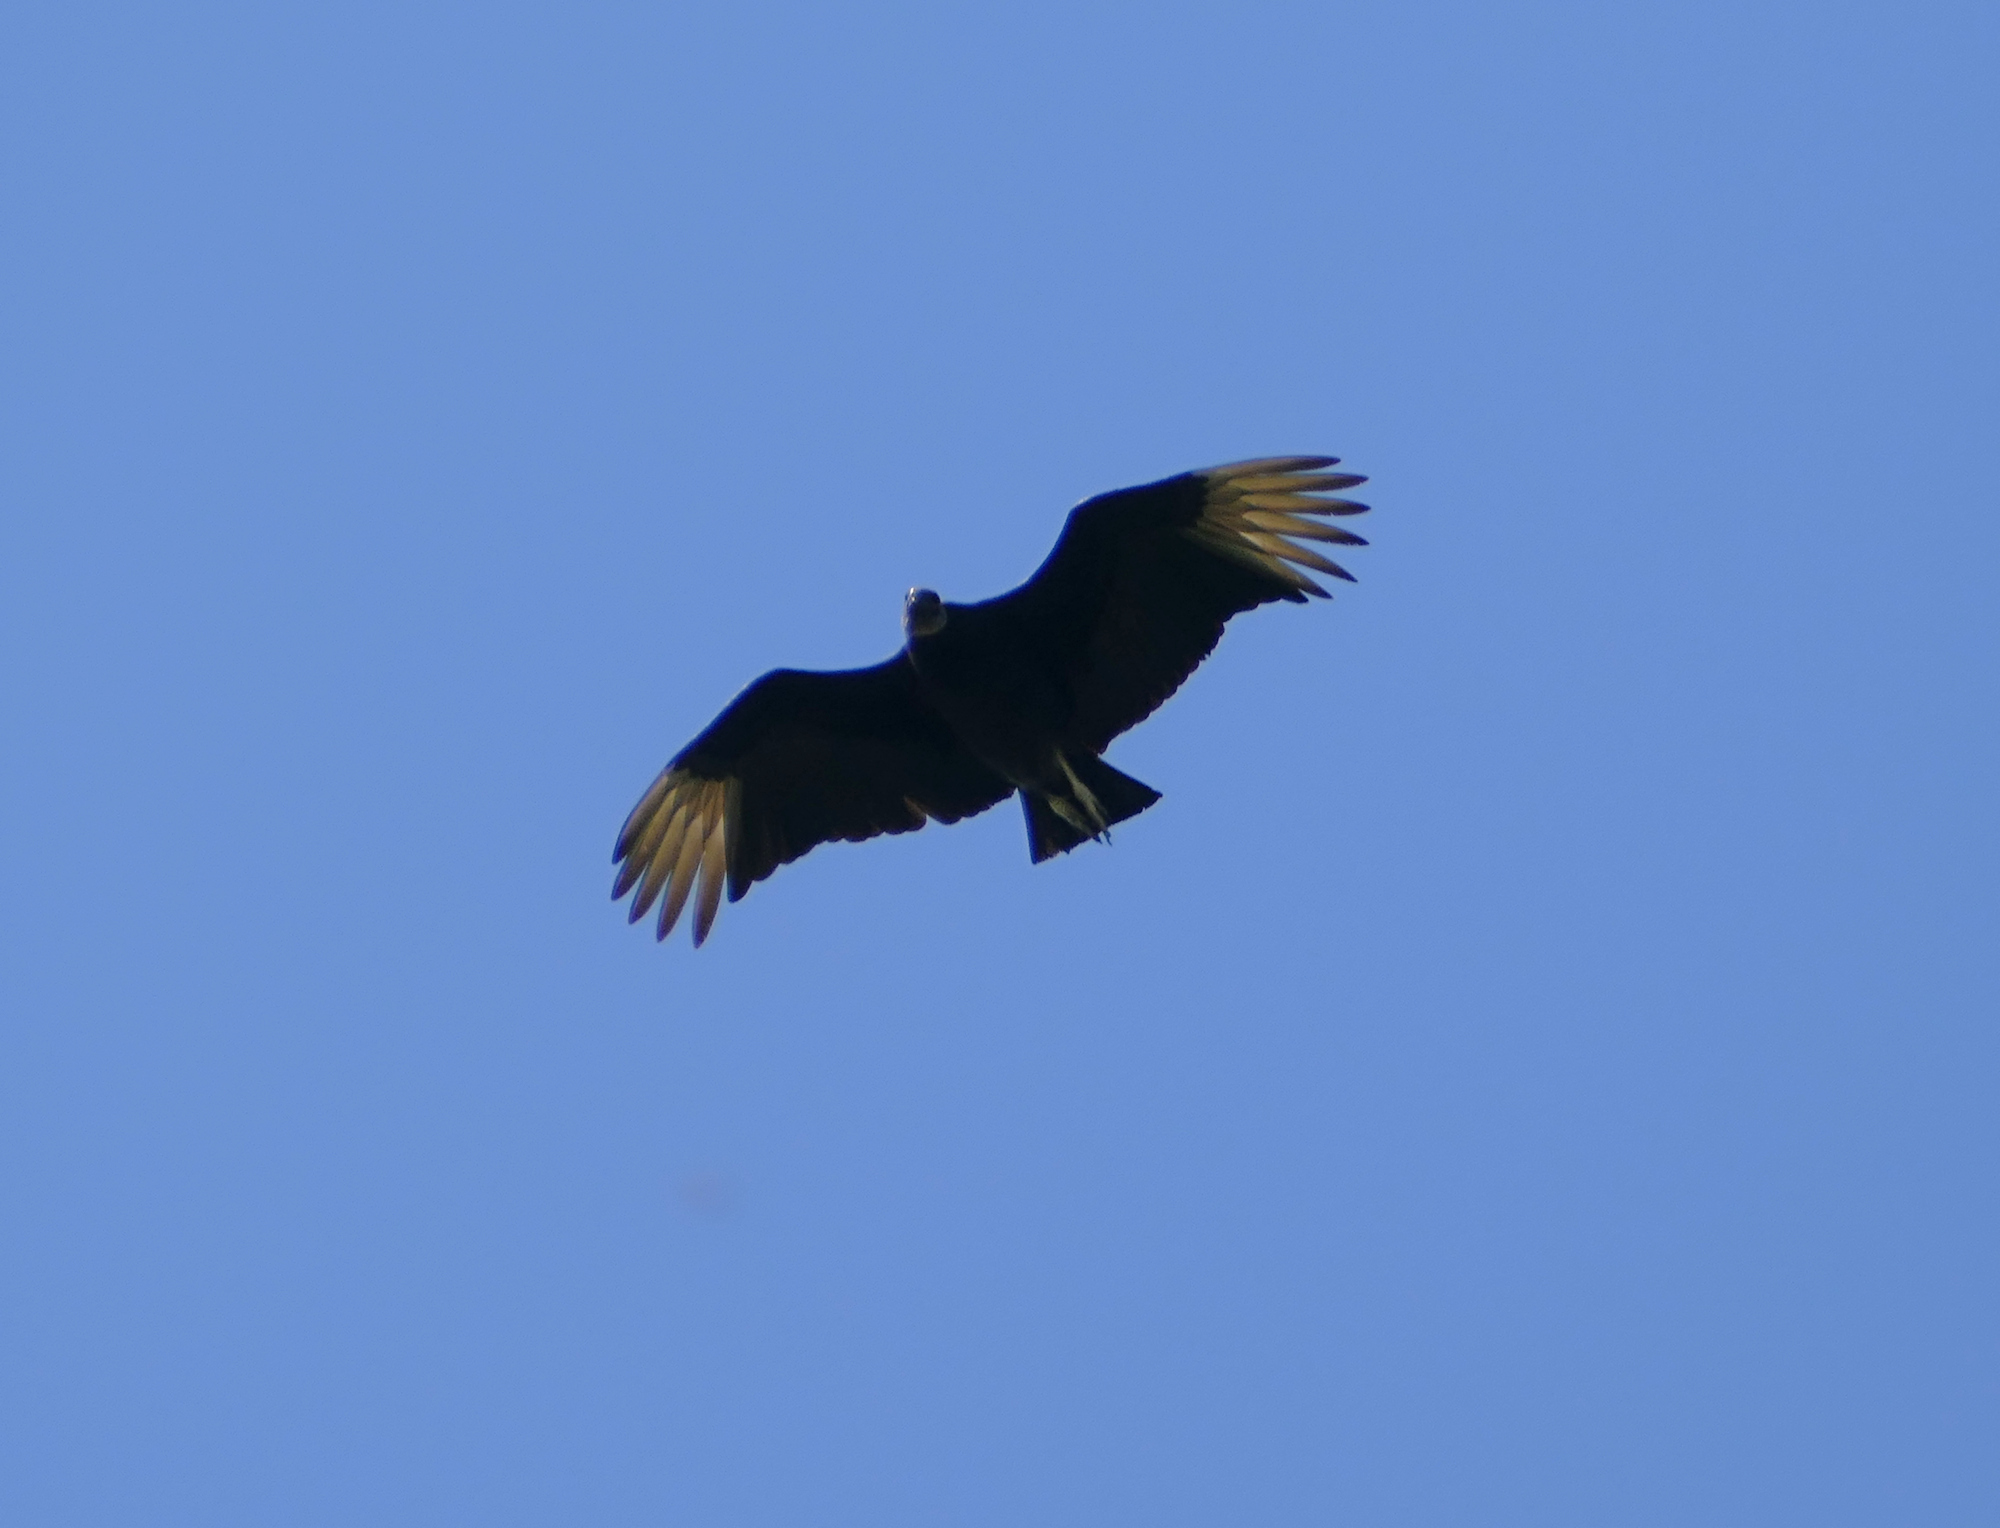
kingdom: Animalia
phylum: Chordata
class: Aves
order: Accipitriformes
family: Cathartidae
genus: Coragyps
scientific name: Coragyps atratus
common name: Black vulture
